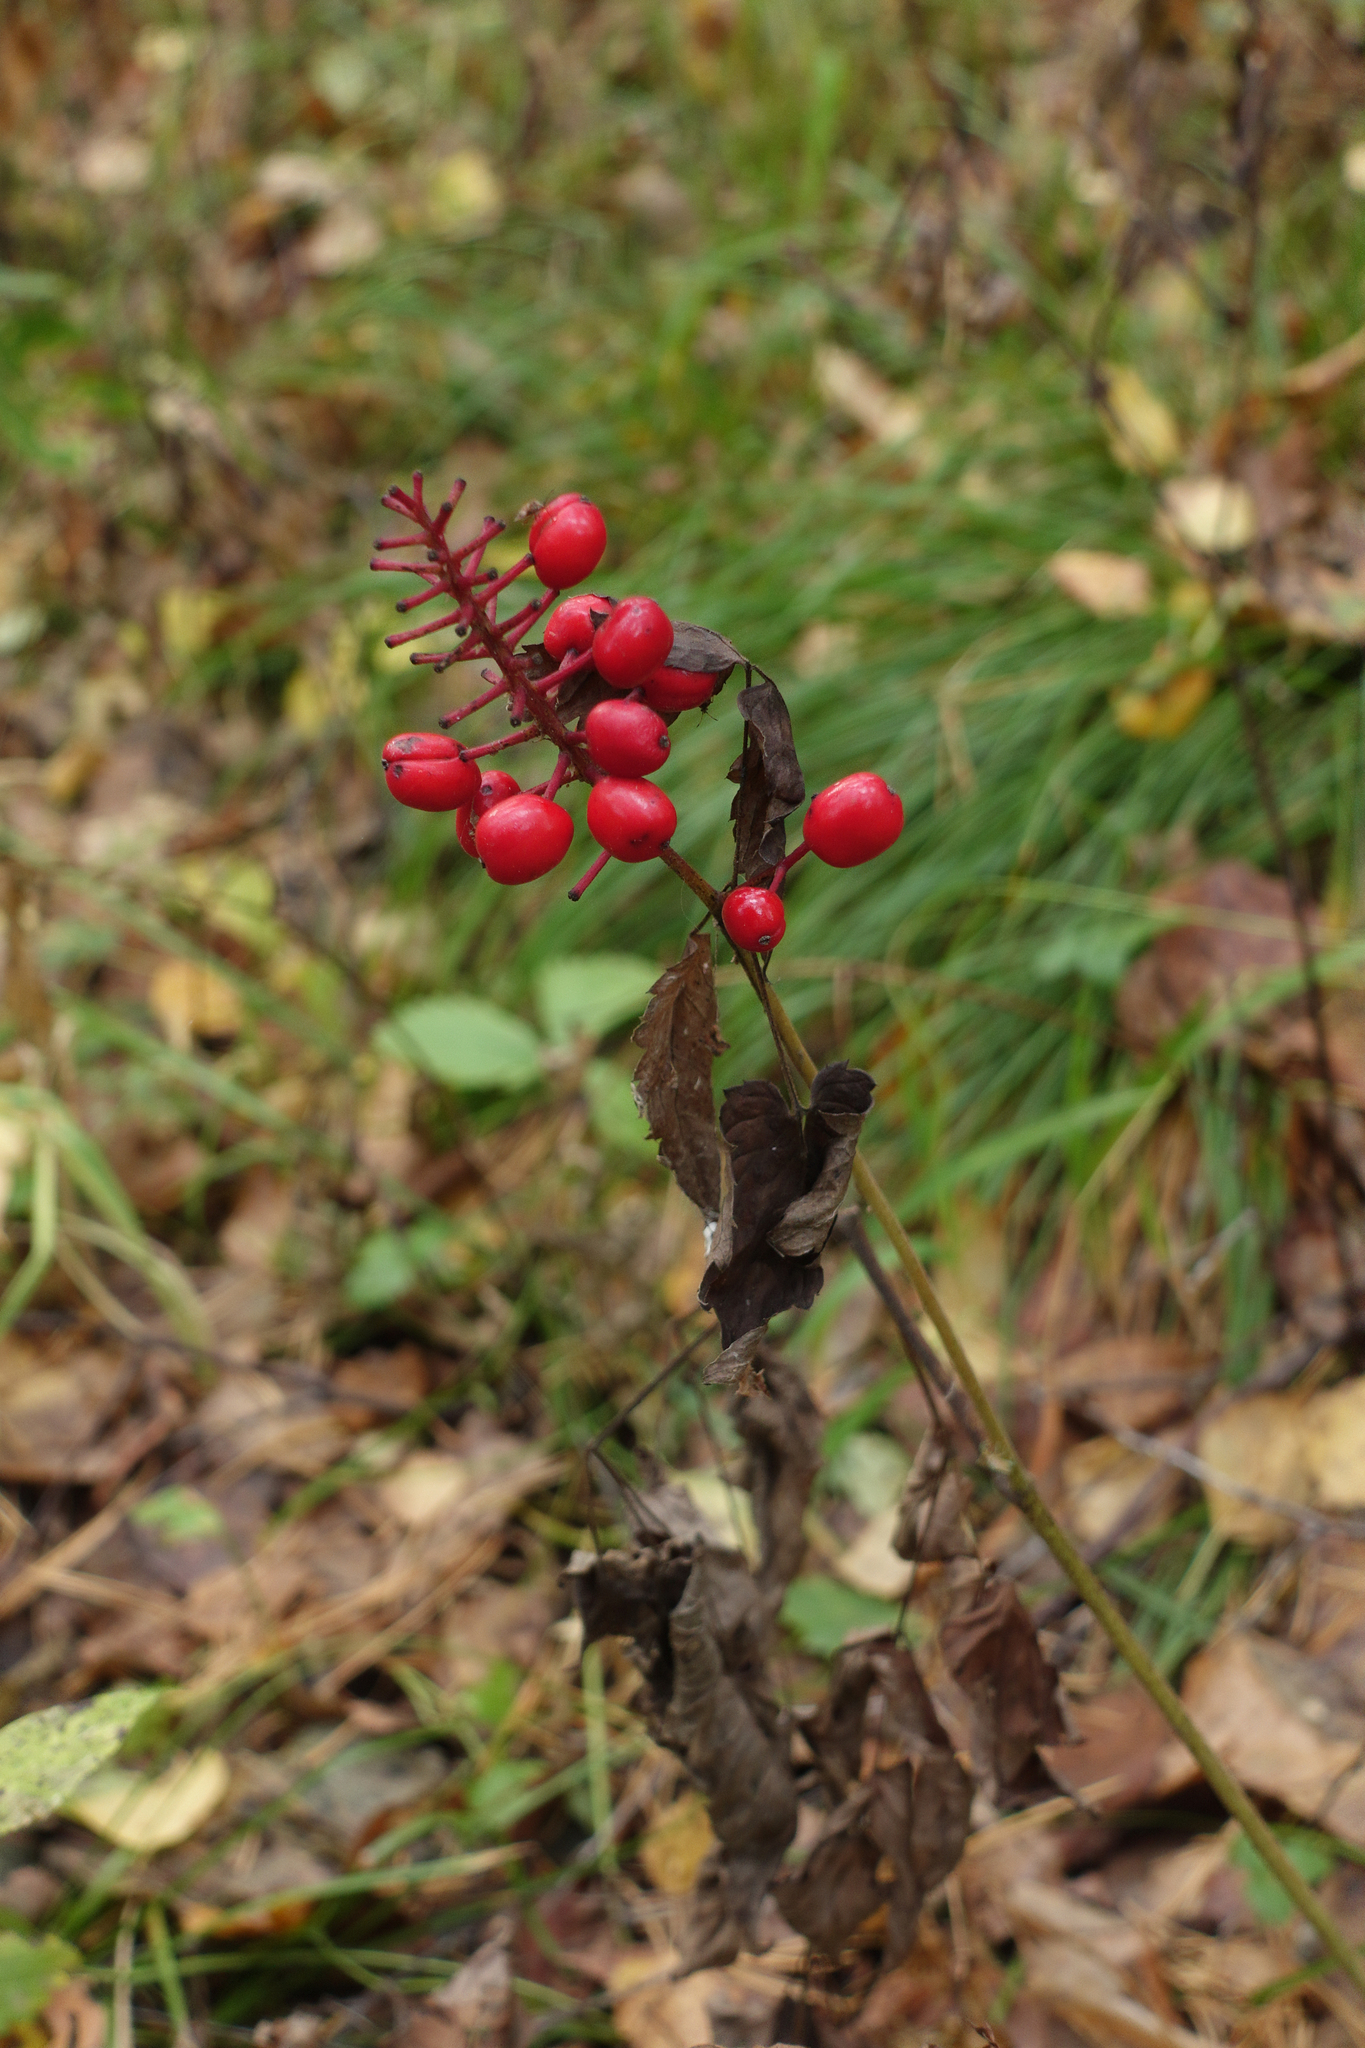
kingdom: Plantae
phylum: Tracheophyta
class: Magnoliopsida
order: Ranunculales
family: Ranunculaceae
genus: Actaea
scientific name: Actaea erythrocarpa
